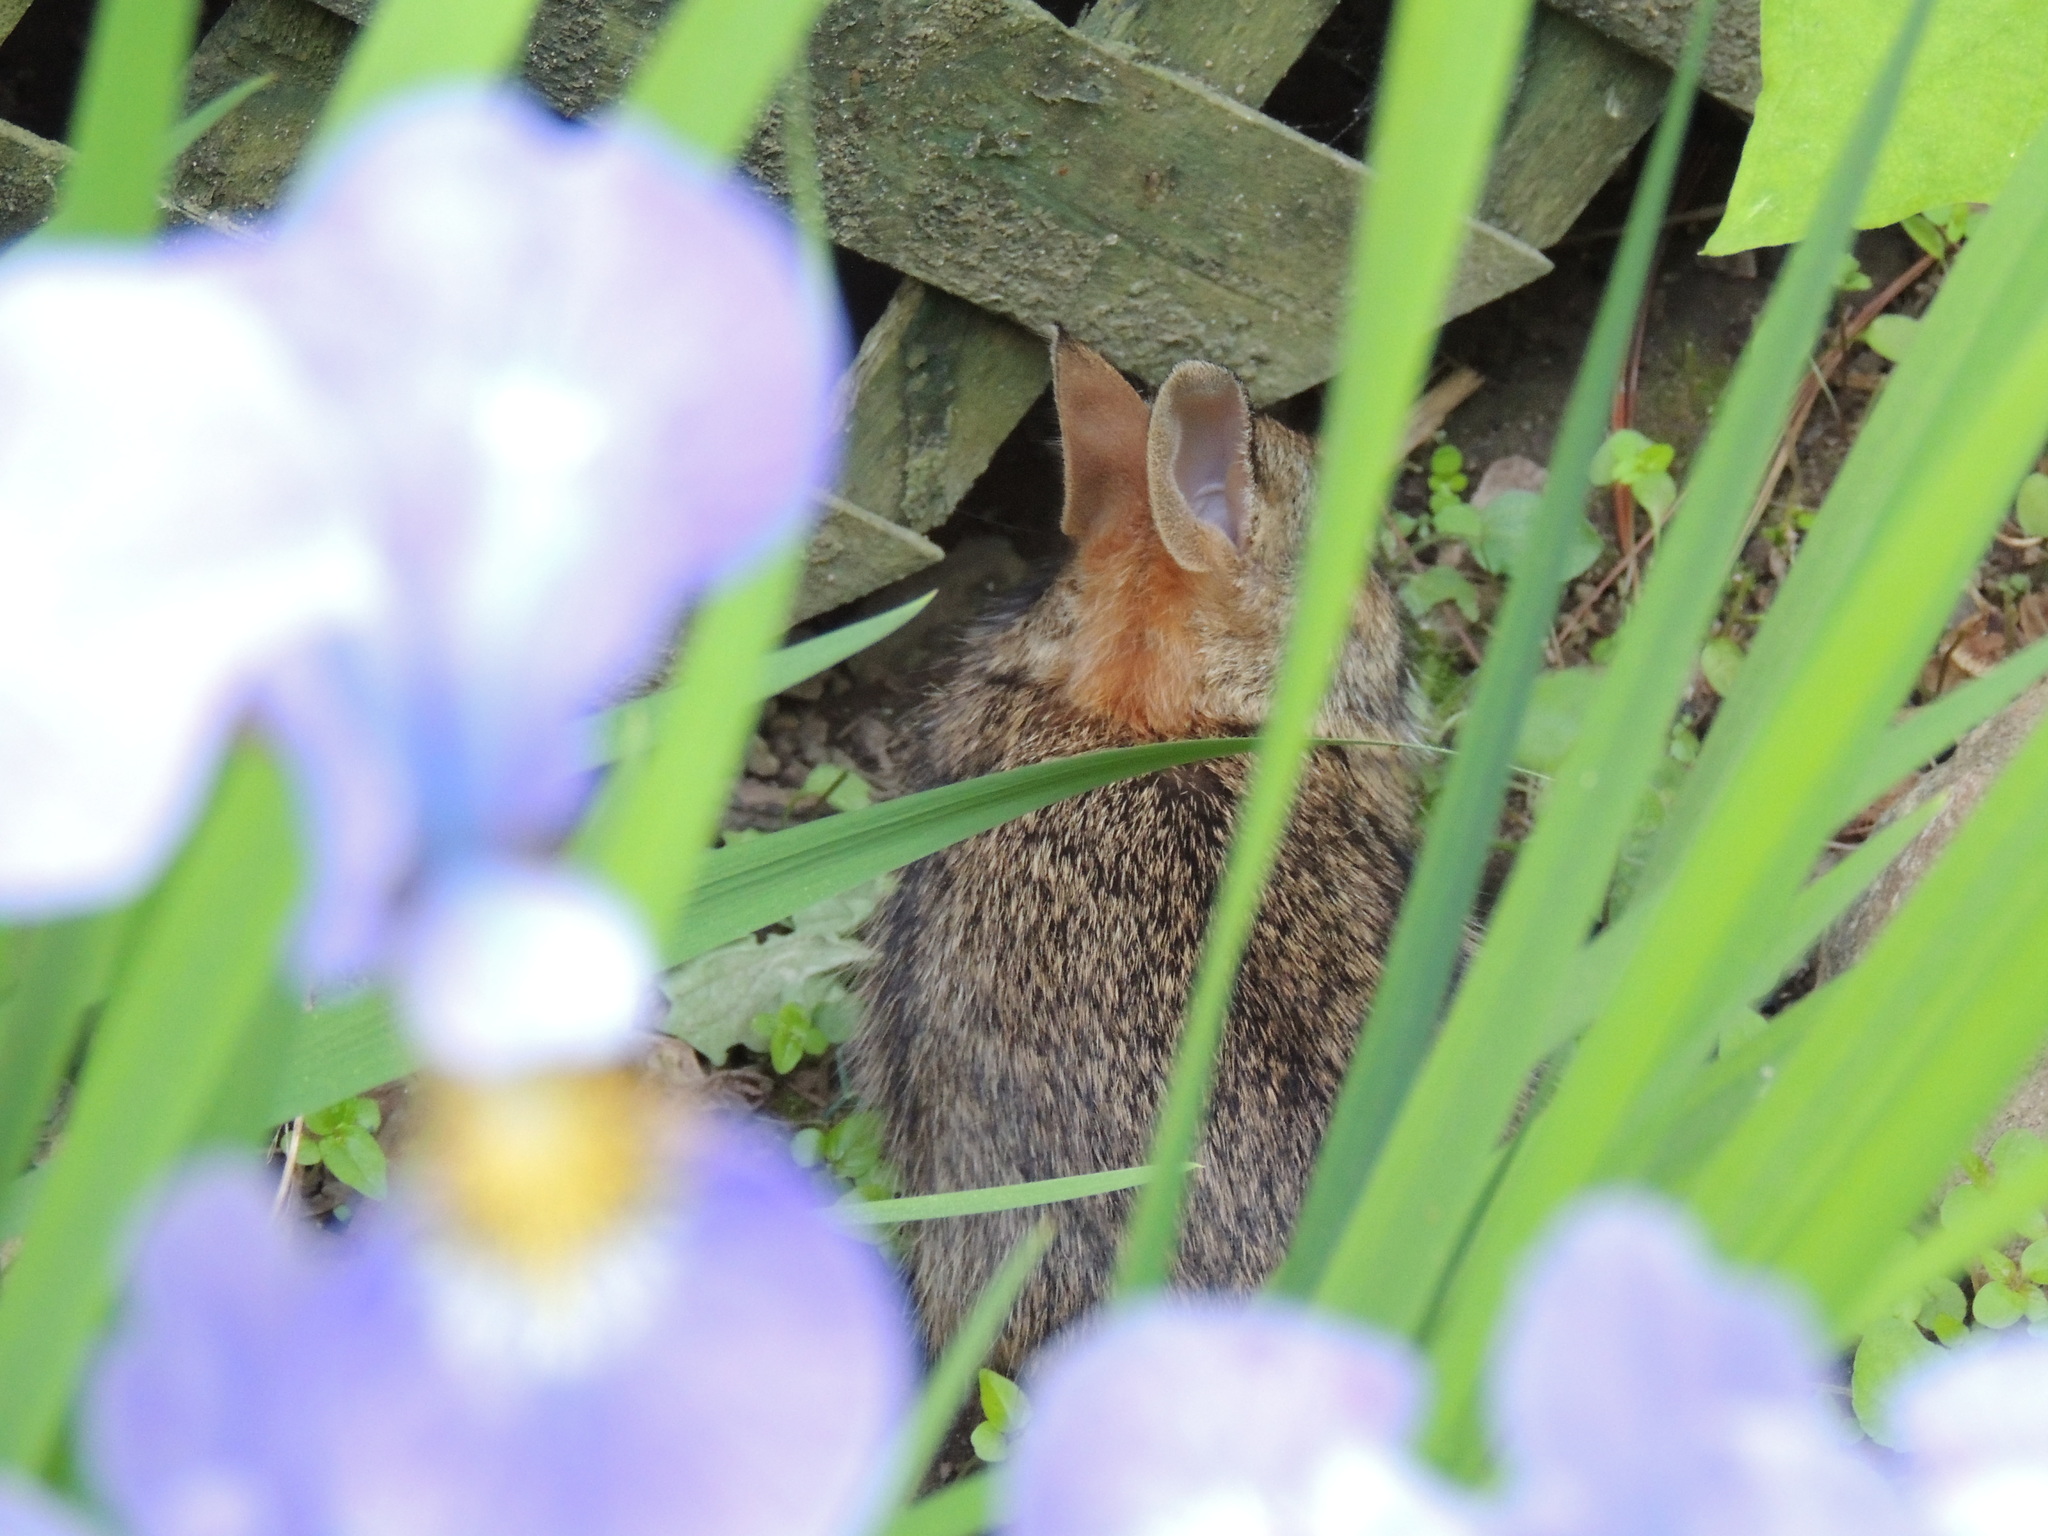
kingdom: Animalia
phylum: Chordata
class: Mammalia
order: Lagomorpha
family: Leporidae
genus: Sylvilagus
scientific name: Sylvilagus floridanus
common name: Eastern cottontail
